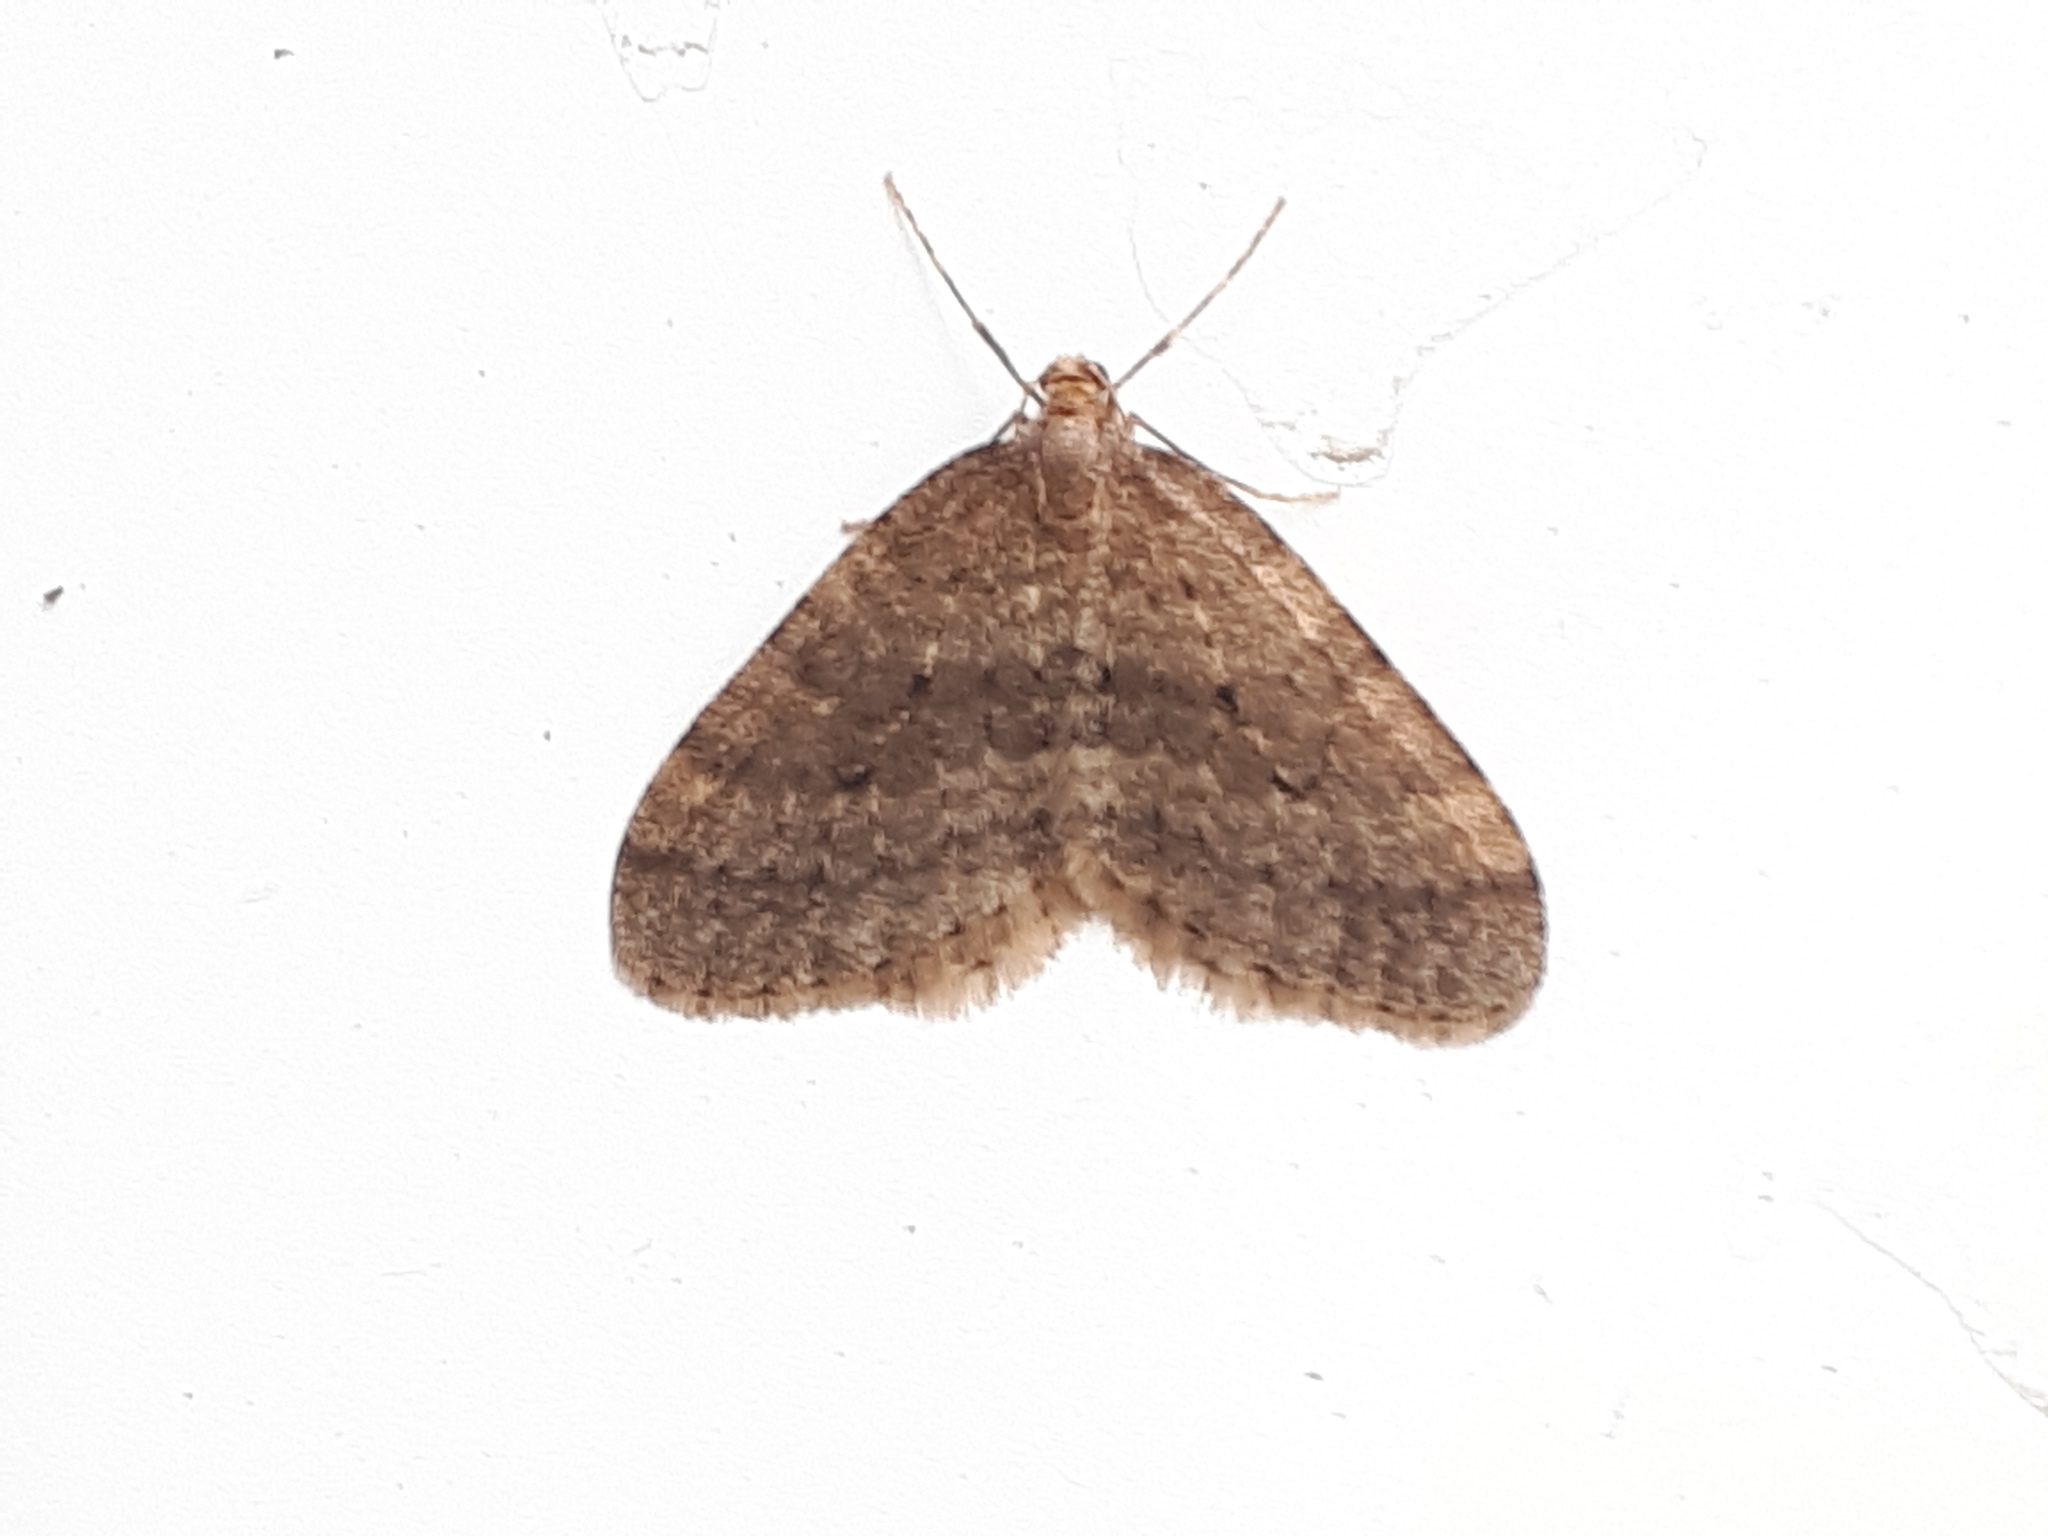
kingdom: Animalia
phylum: Arthropoda
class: Insecta
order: Lepidoptera
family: Geometridae
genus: Operophtera
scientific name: Operophtera brumata
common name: Winter moth
